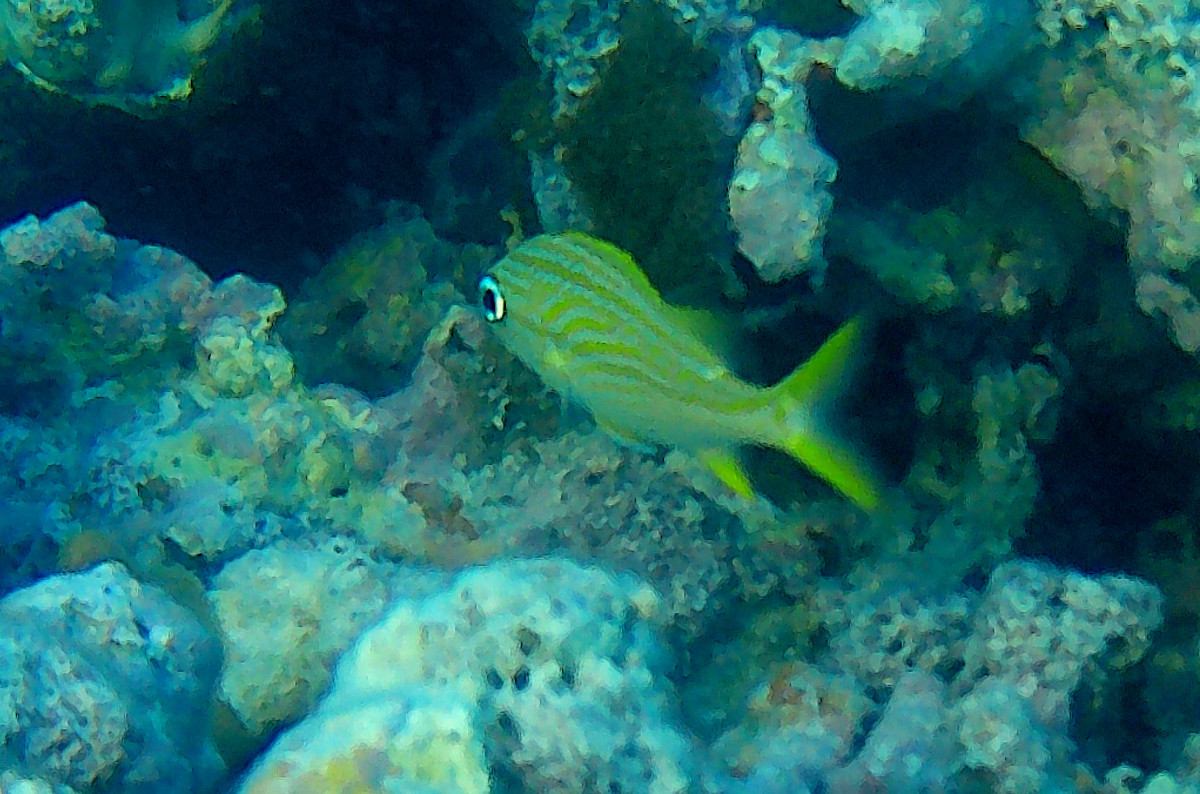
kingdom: Animalia
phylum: Chordata
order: Perciformes
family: Haemulidae
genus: Haemulon
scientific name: Haemulon flavolineatum
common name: French grunt
